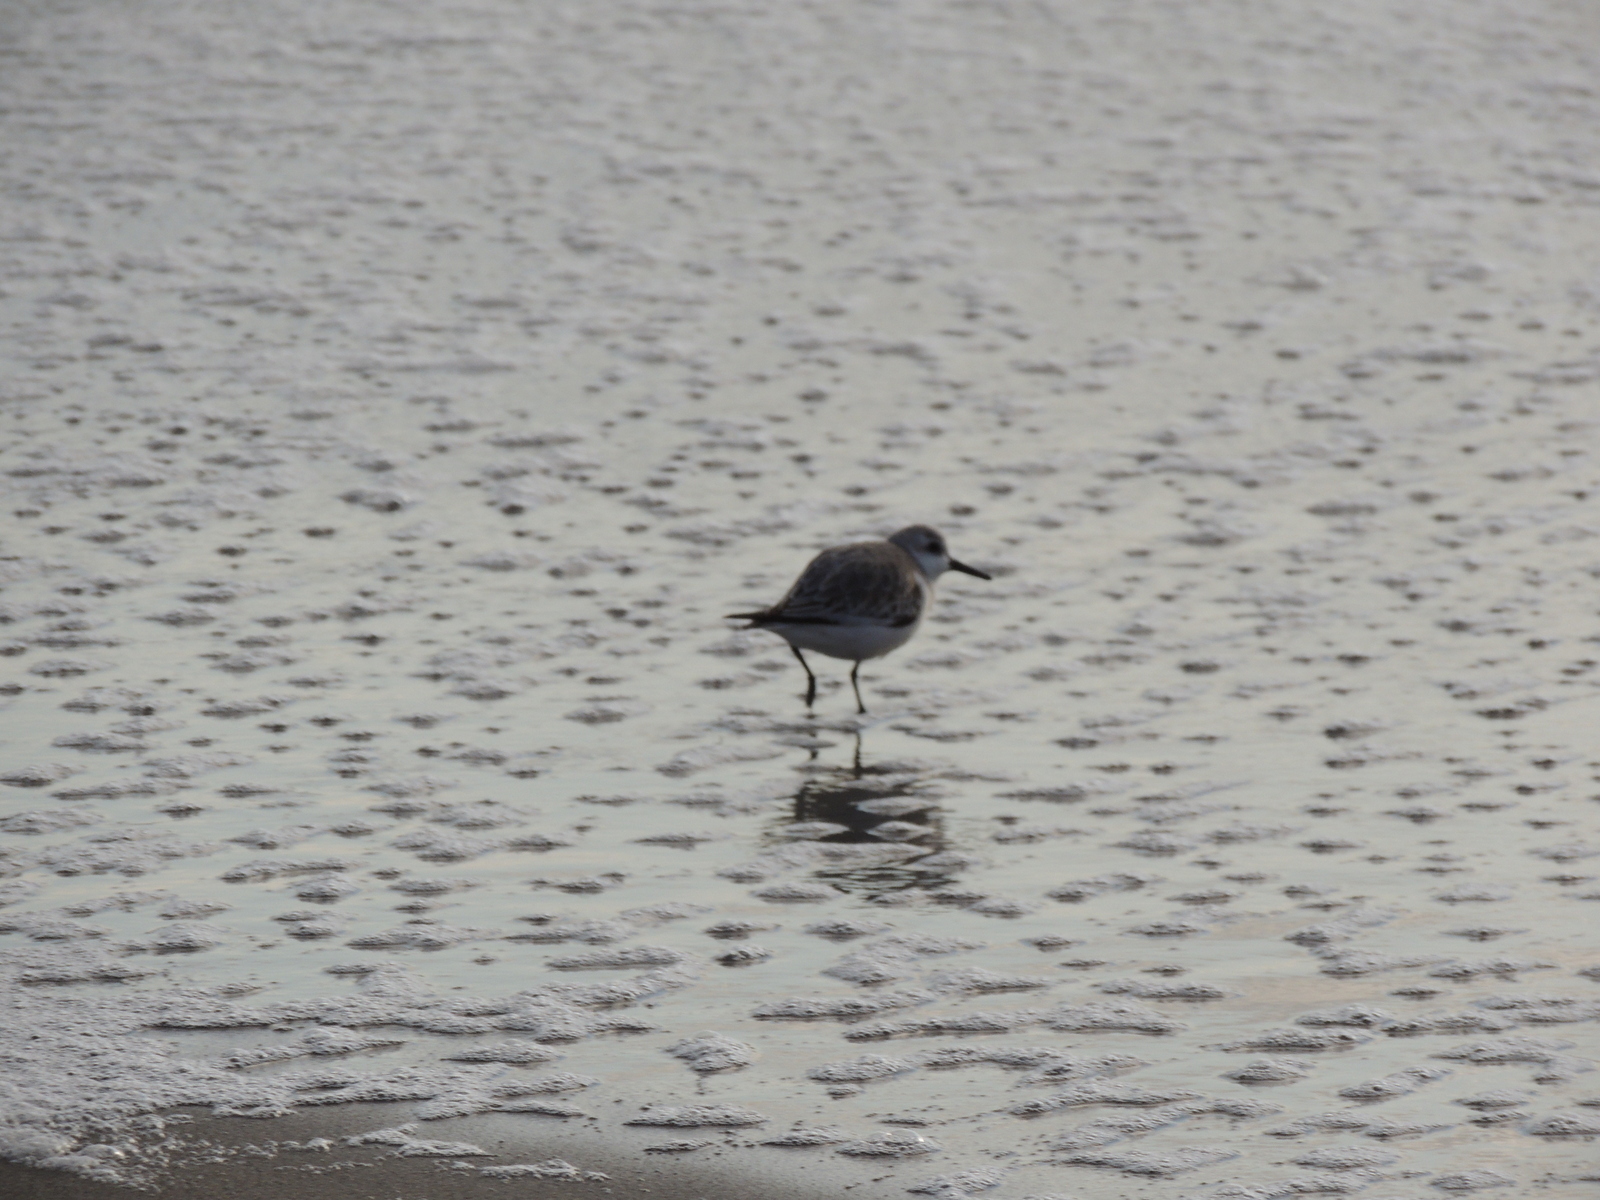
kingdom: Animalia
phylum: Chordata
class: Aves
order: Charadriiformes
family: Scolopacidae
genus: Calidris
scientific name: Calidris alba
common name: Sanderling
